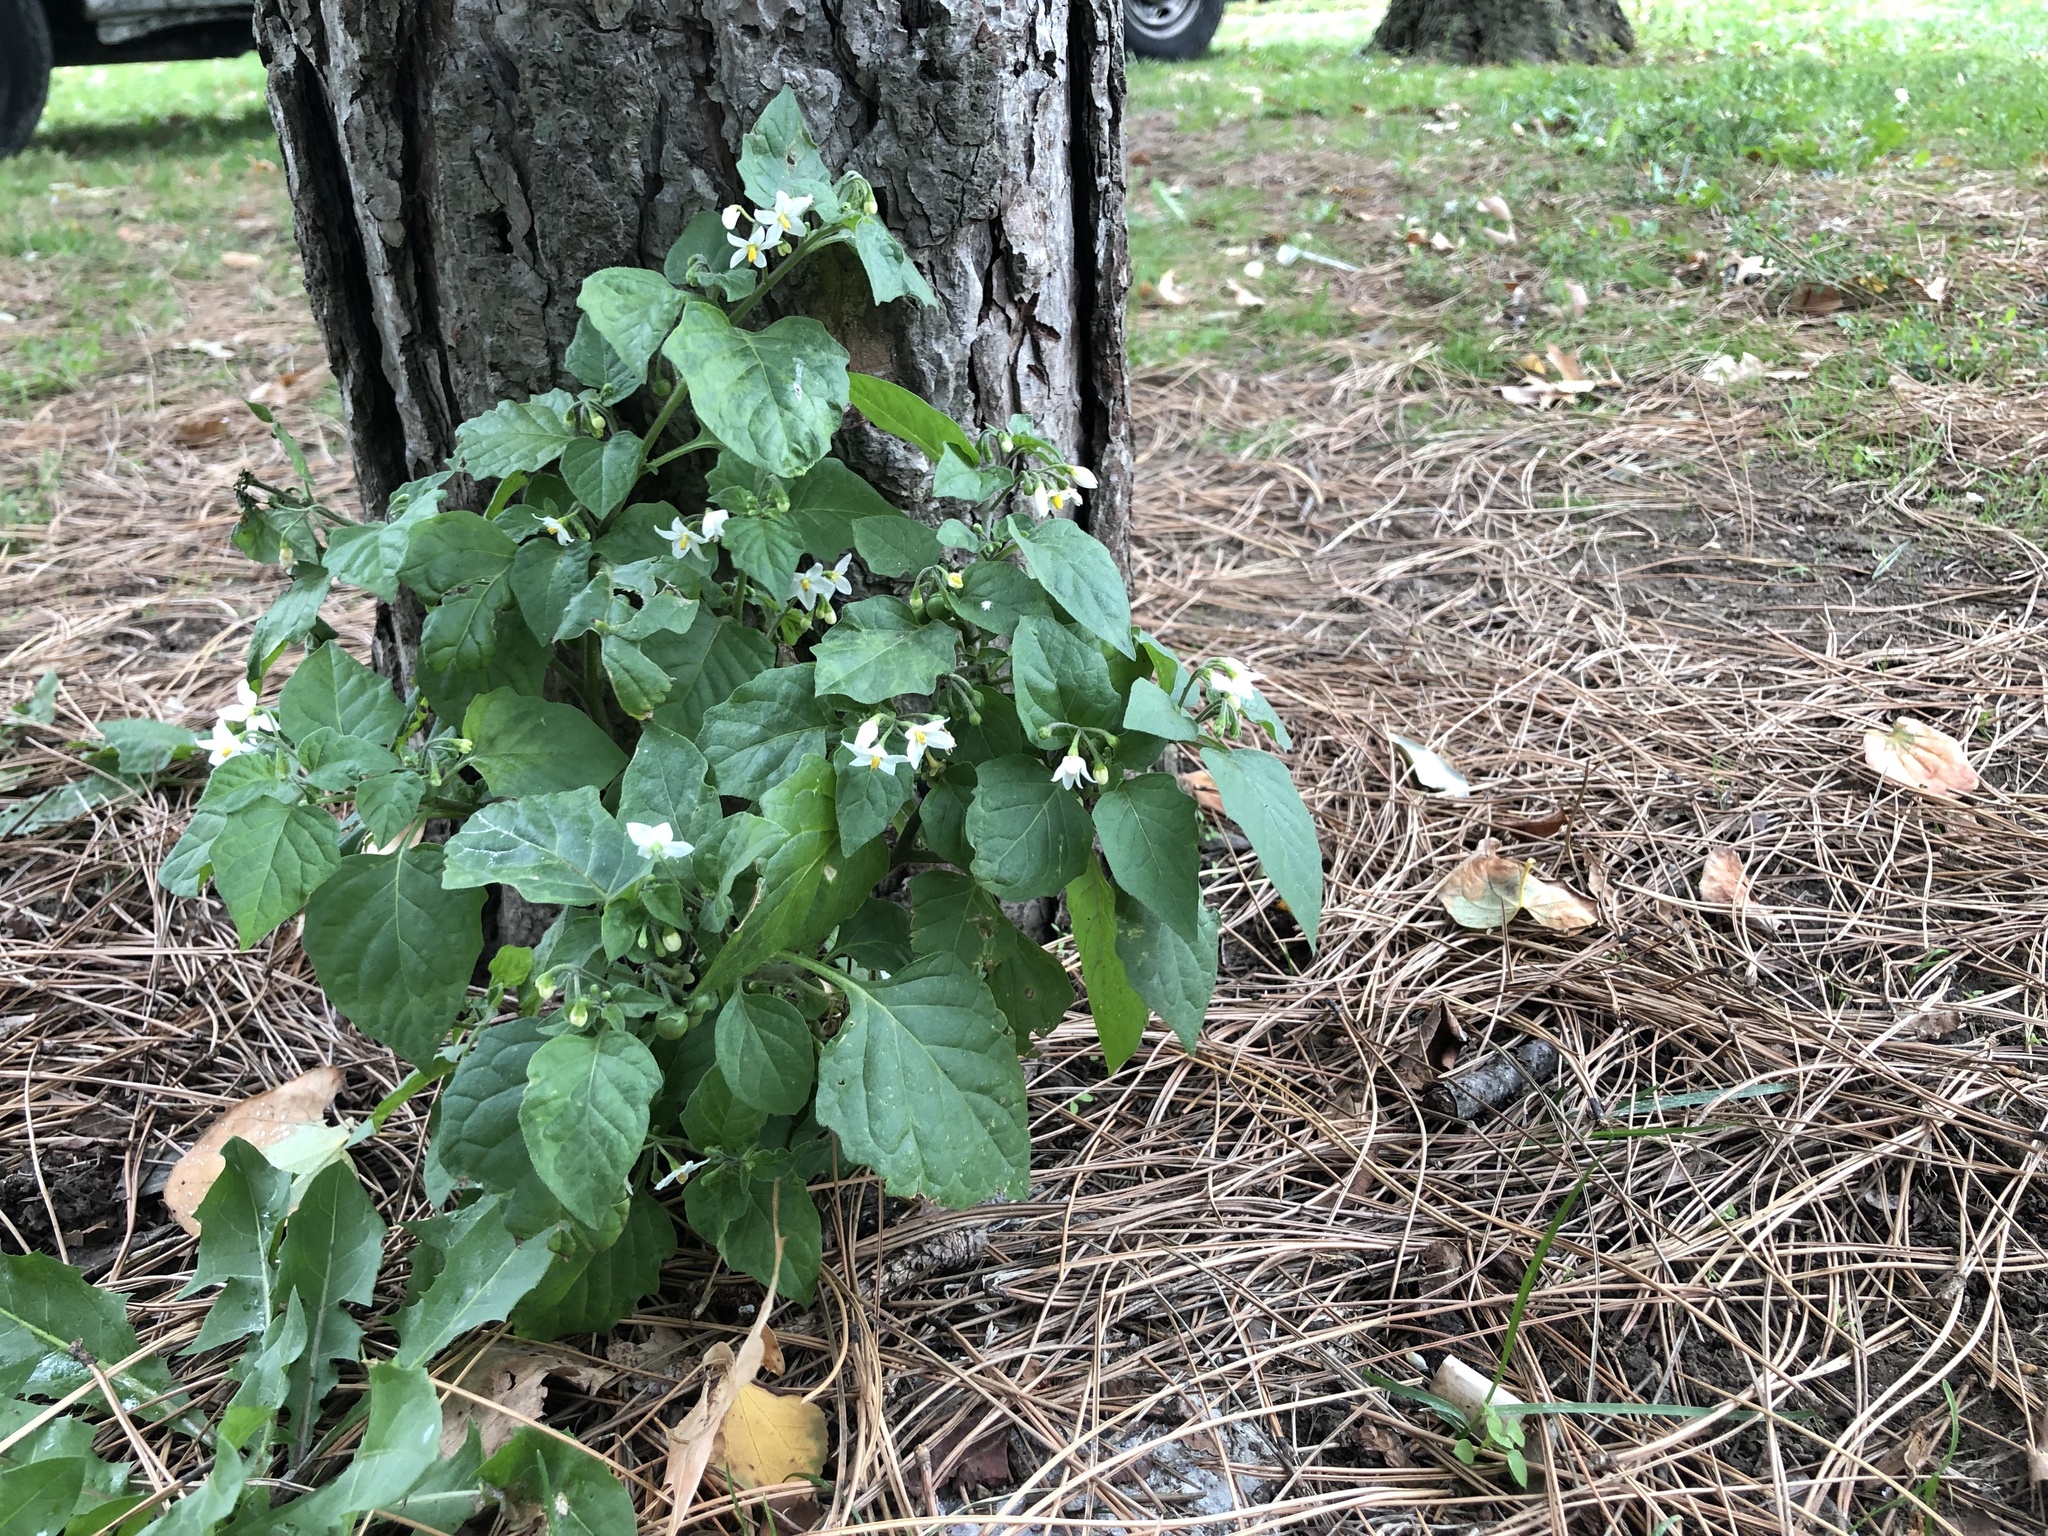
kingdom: Plantae
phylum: Tracheophyta
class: Magnoliopsida
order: Solanales
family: Solanaceae
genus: Solanum
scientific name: Solanum nigrum
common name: Black nightshade
